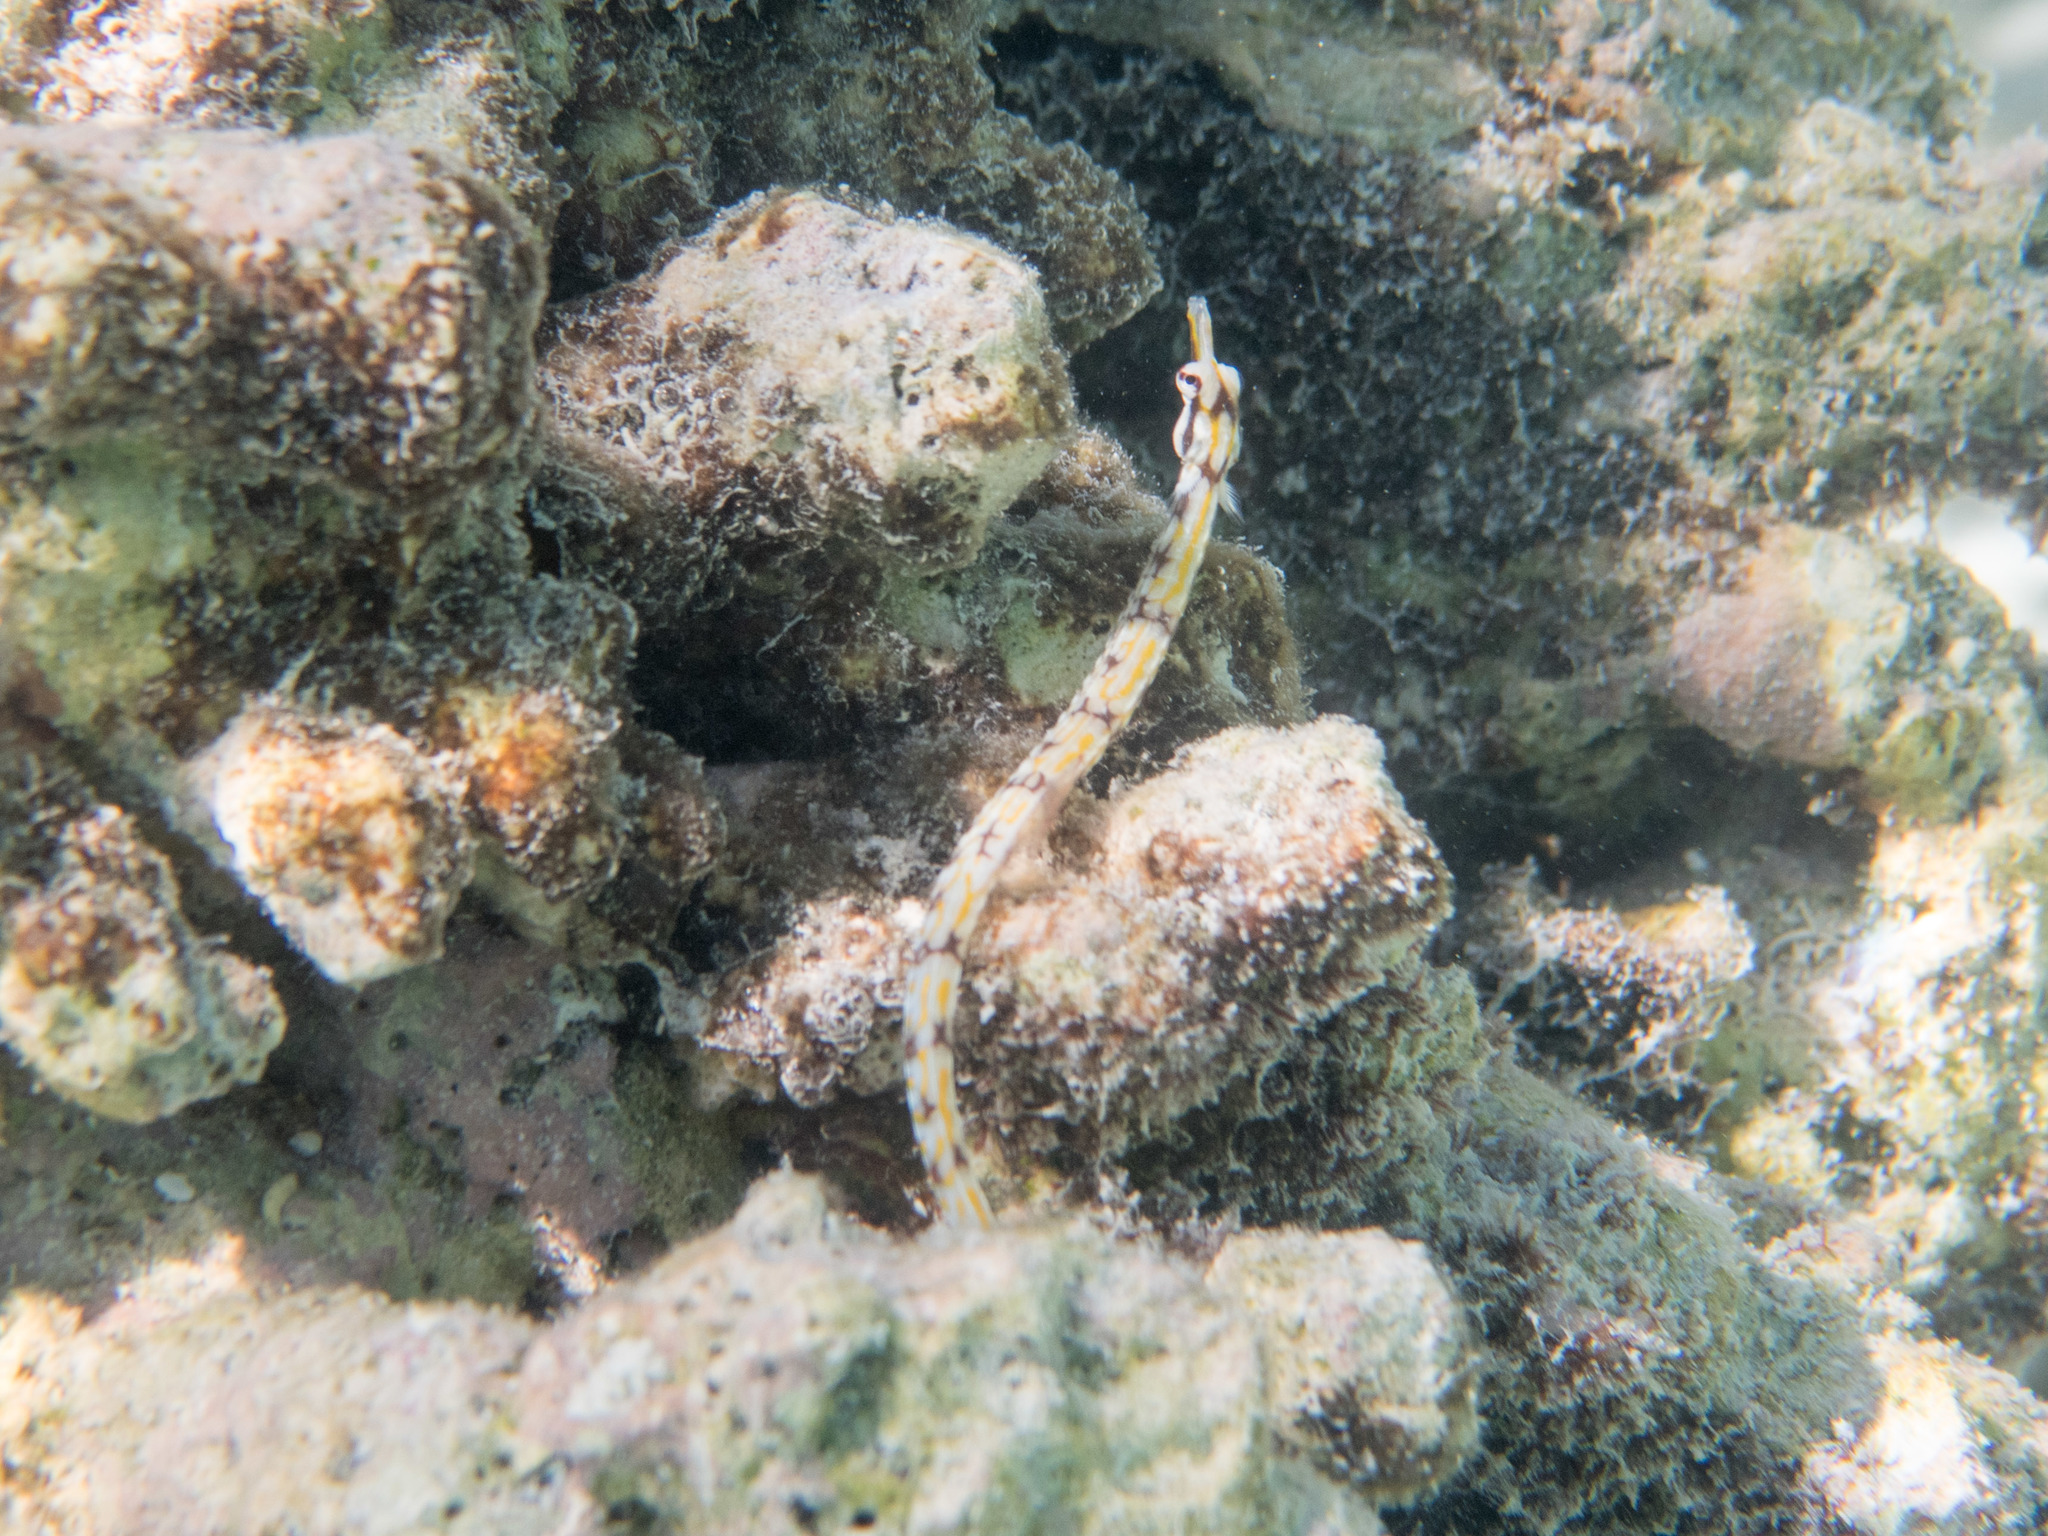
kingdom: Animalia
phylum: Chordata
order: Syngnathiformes
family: Syngnathidae
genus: Corythoichthys
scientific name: Corythoichthys flavofasciatus
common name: Banded pipefish
